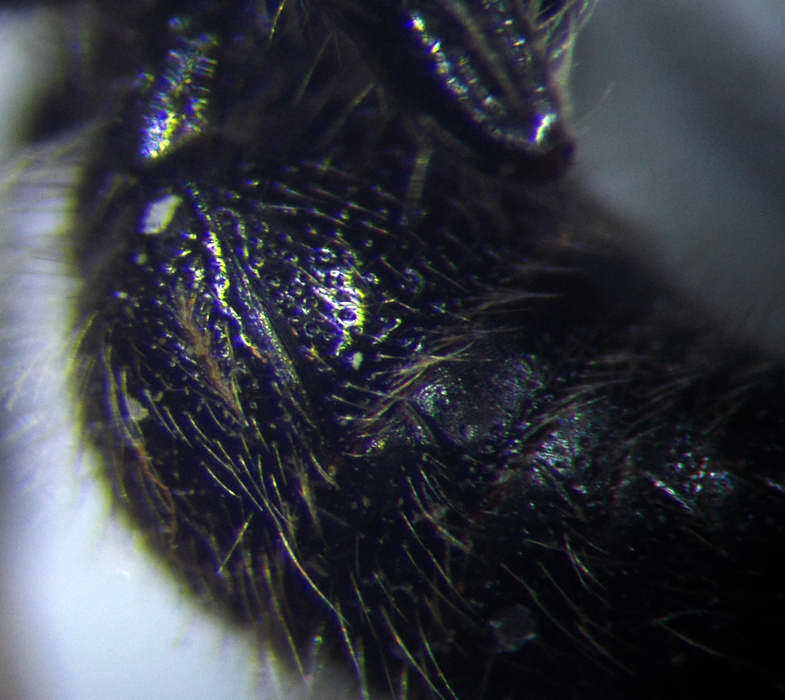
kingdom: Animalia
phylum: Arthropoda
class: Insecta
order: Hymenoptera
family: Mutillidae
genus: Physetopoda
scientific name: Physetopoda halensis
